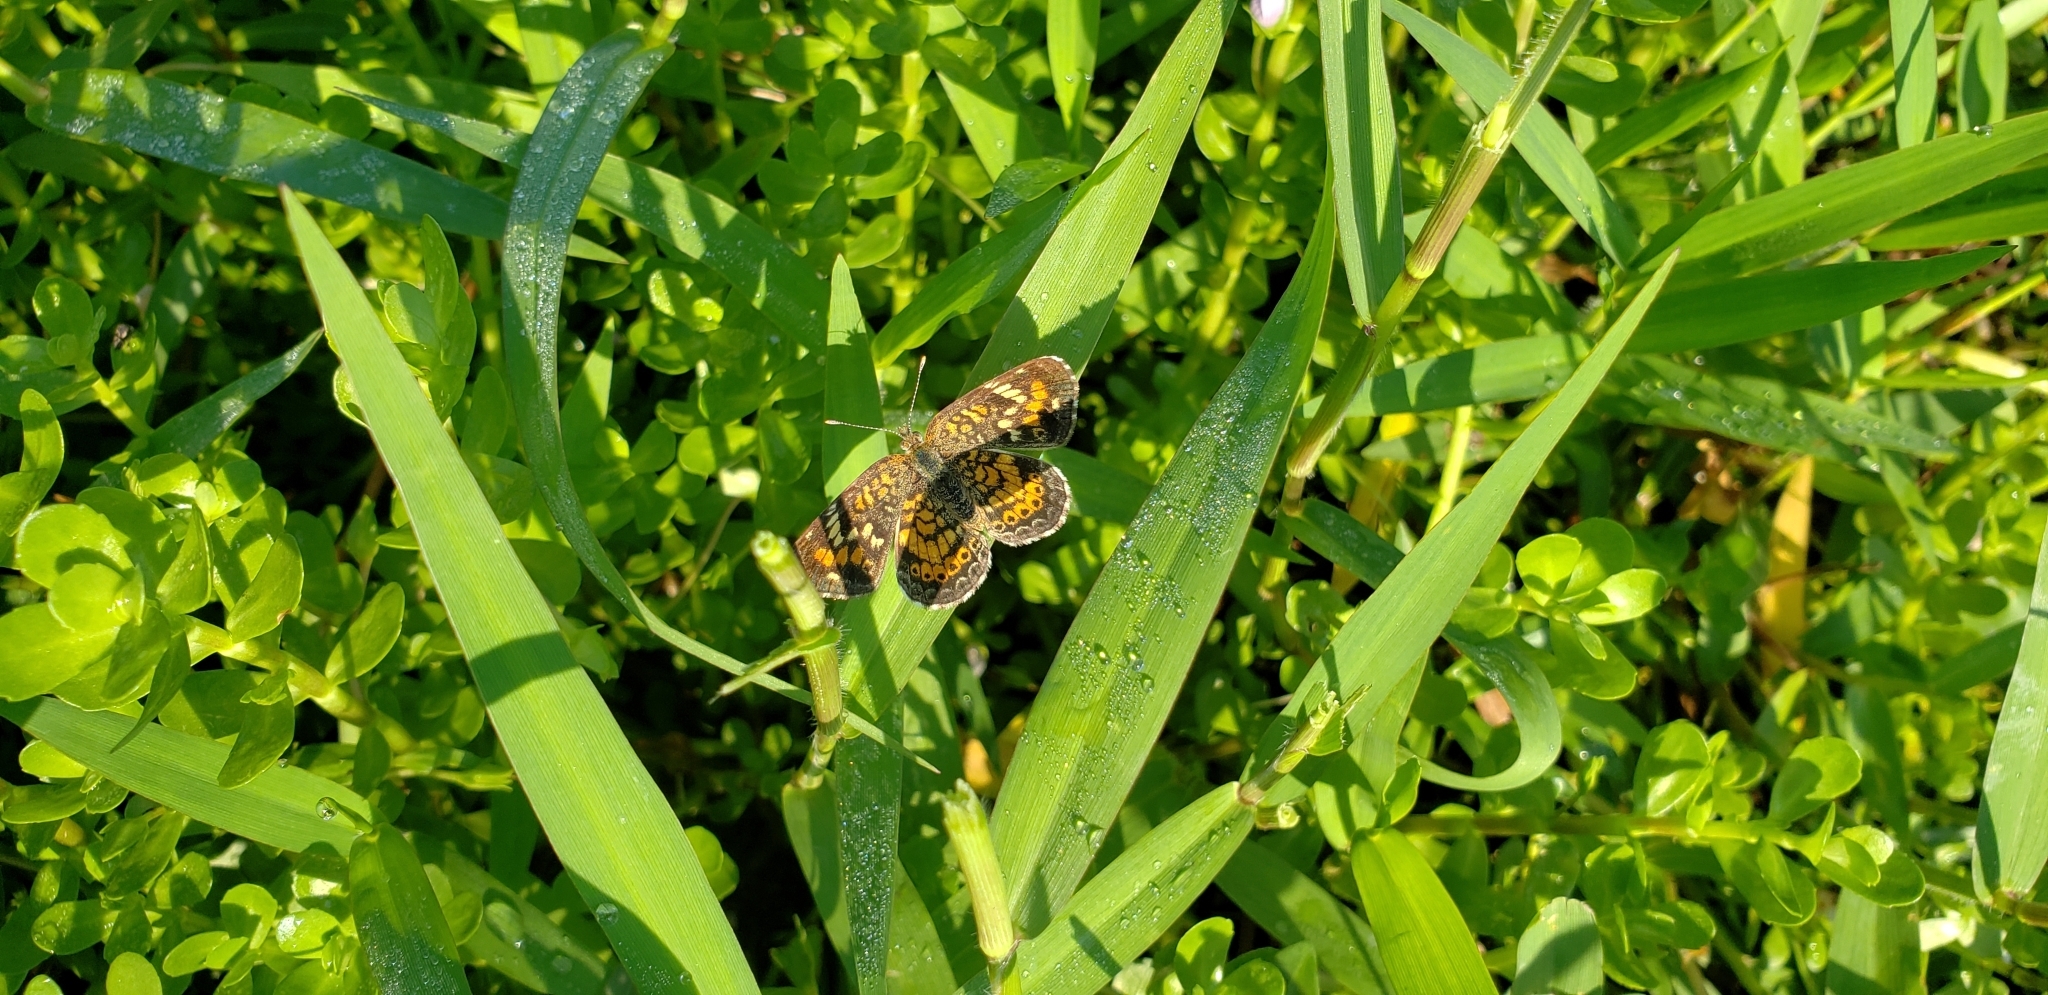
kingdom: Animalia
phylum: Arthropoda
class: Insecta
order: Lepidoptera
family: Nymphalidae
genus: Phyciodes
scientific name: Phyciodes phaon
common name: Phaon crescent
